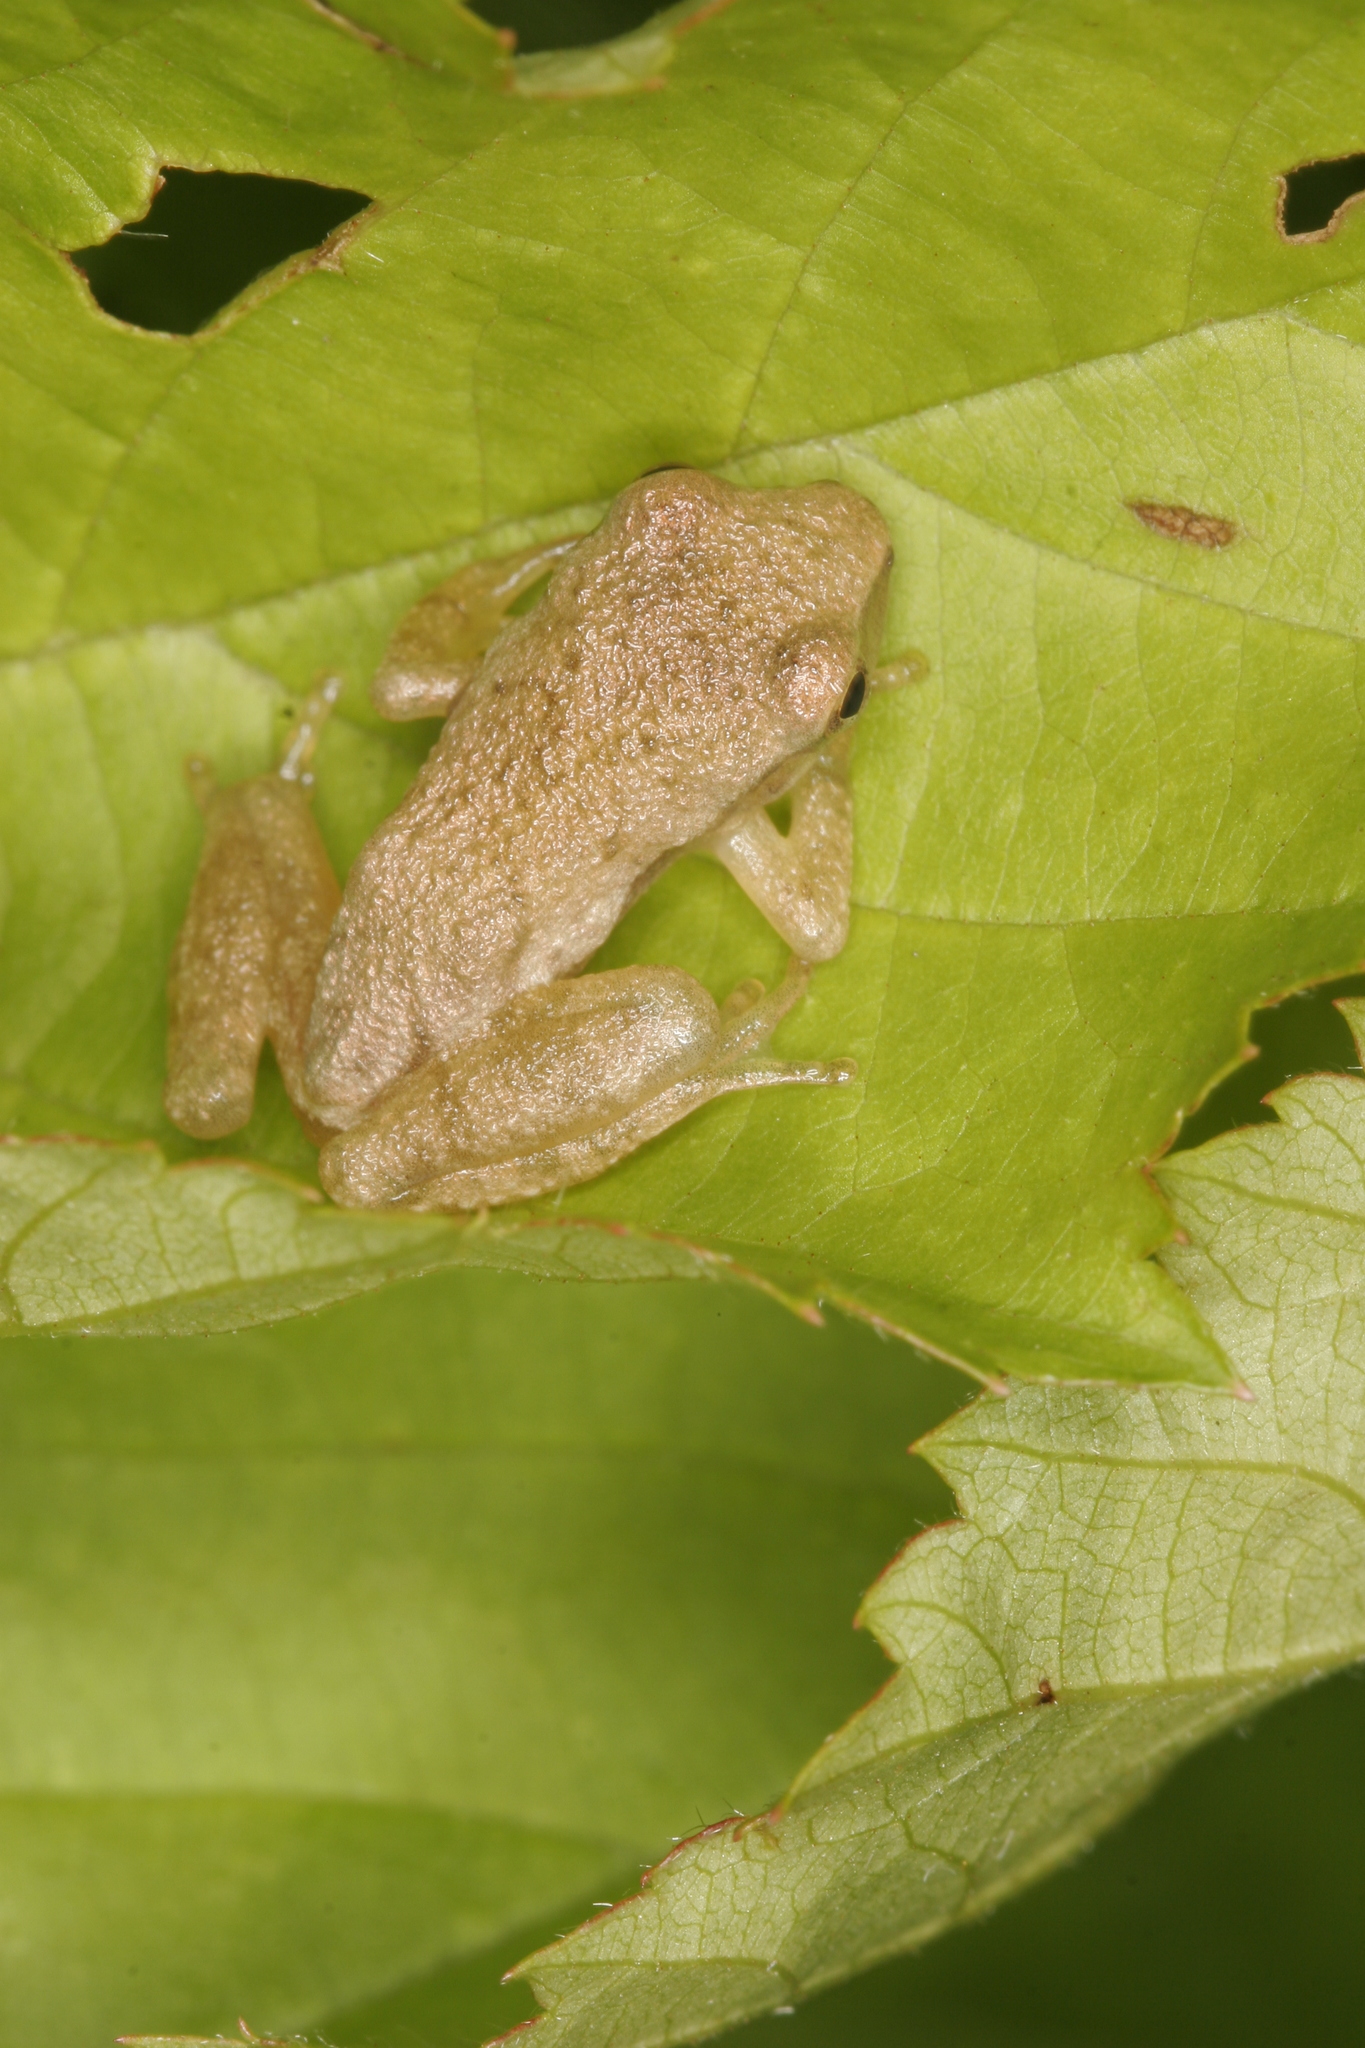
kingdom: Animalia
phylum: Chordata
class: Amphibia
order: Anura
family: Hylidae
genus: Pseudacris
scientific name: Pseudacris crucifer
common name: Spring peeper
